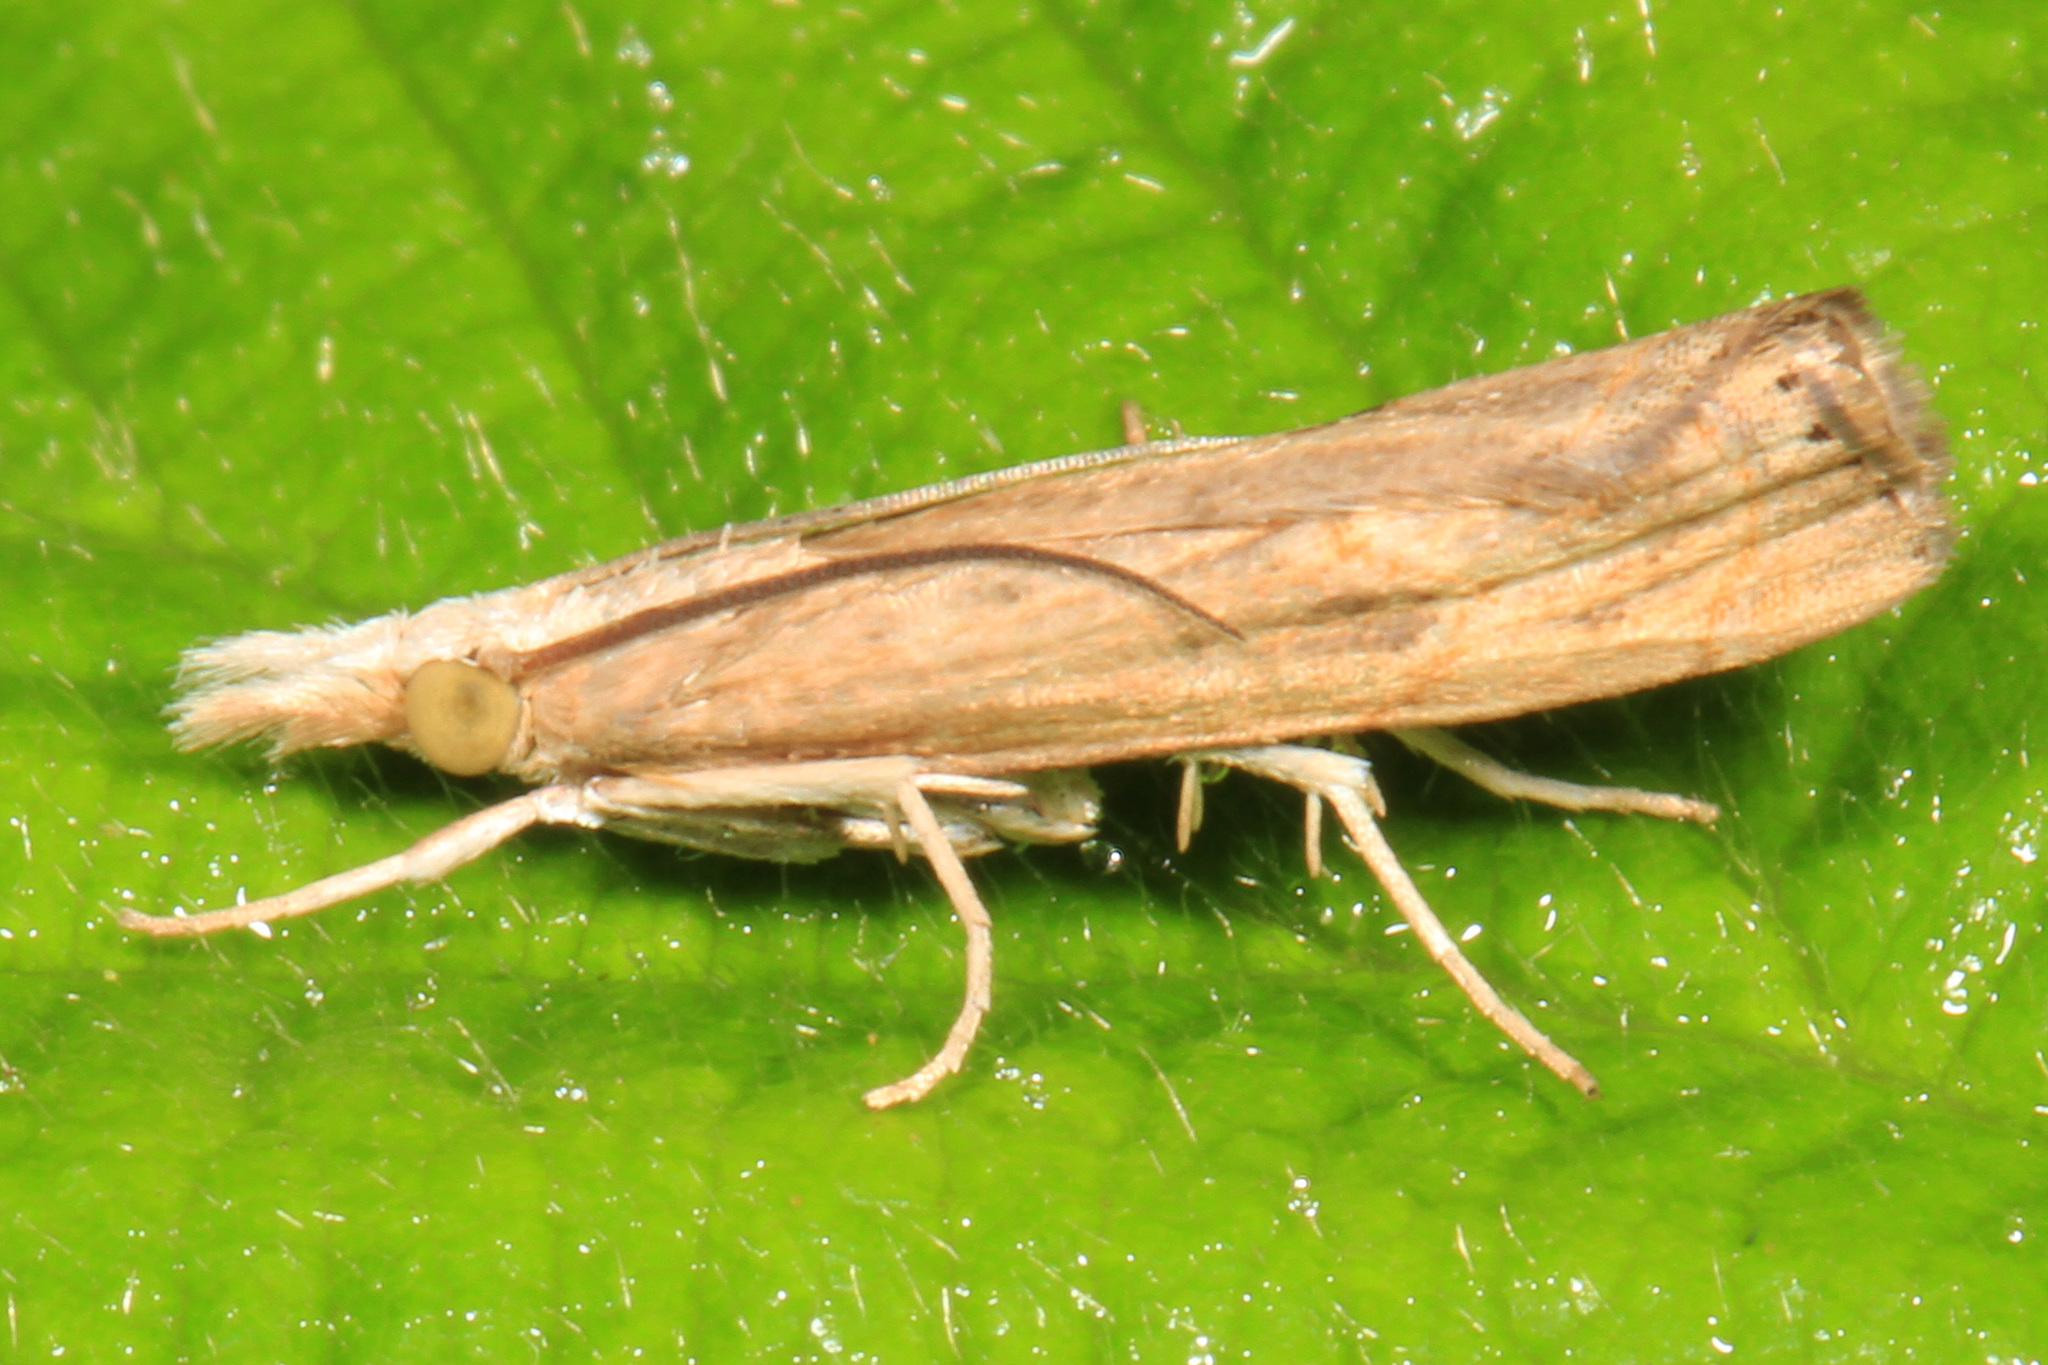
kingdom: Animalia
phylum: Arthropoda
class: Insecta
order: Lepidoptera
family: Crambidae
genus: Parapediasia
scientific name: Parapediasia teterellus
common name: Bluegrass webworm moth
